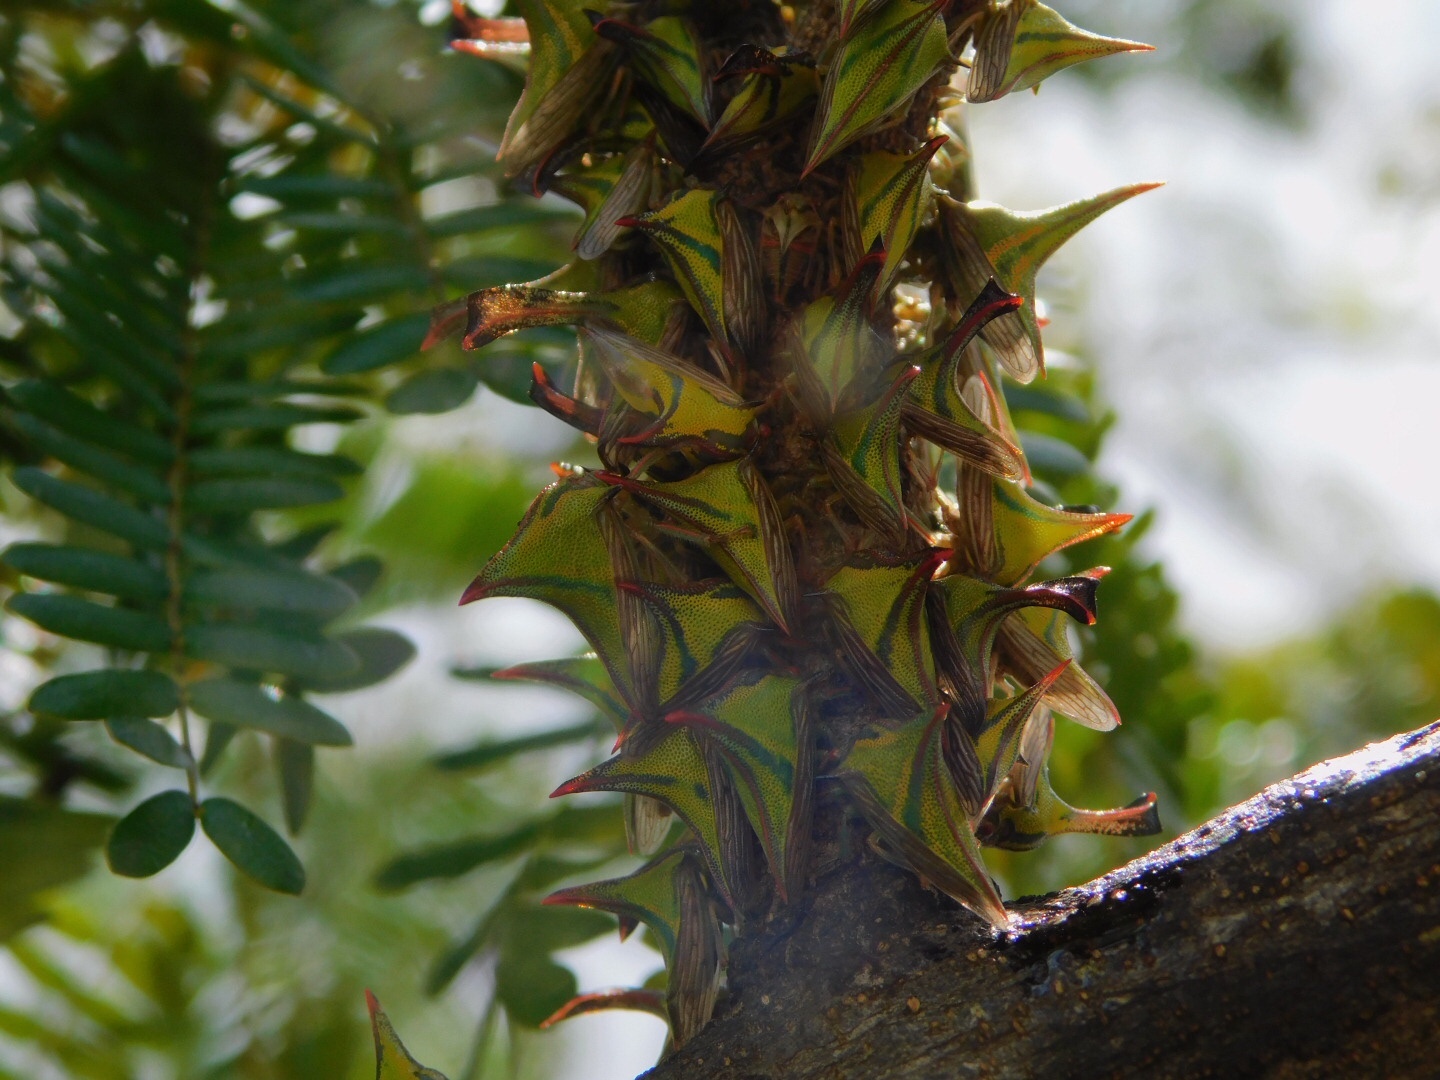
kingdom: Animalia
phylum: Arthropoda
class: Insecta
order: Hemiptera
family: Membracidae
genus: Umbonia
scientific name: Umbonia crassicornis
